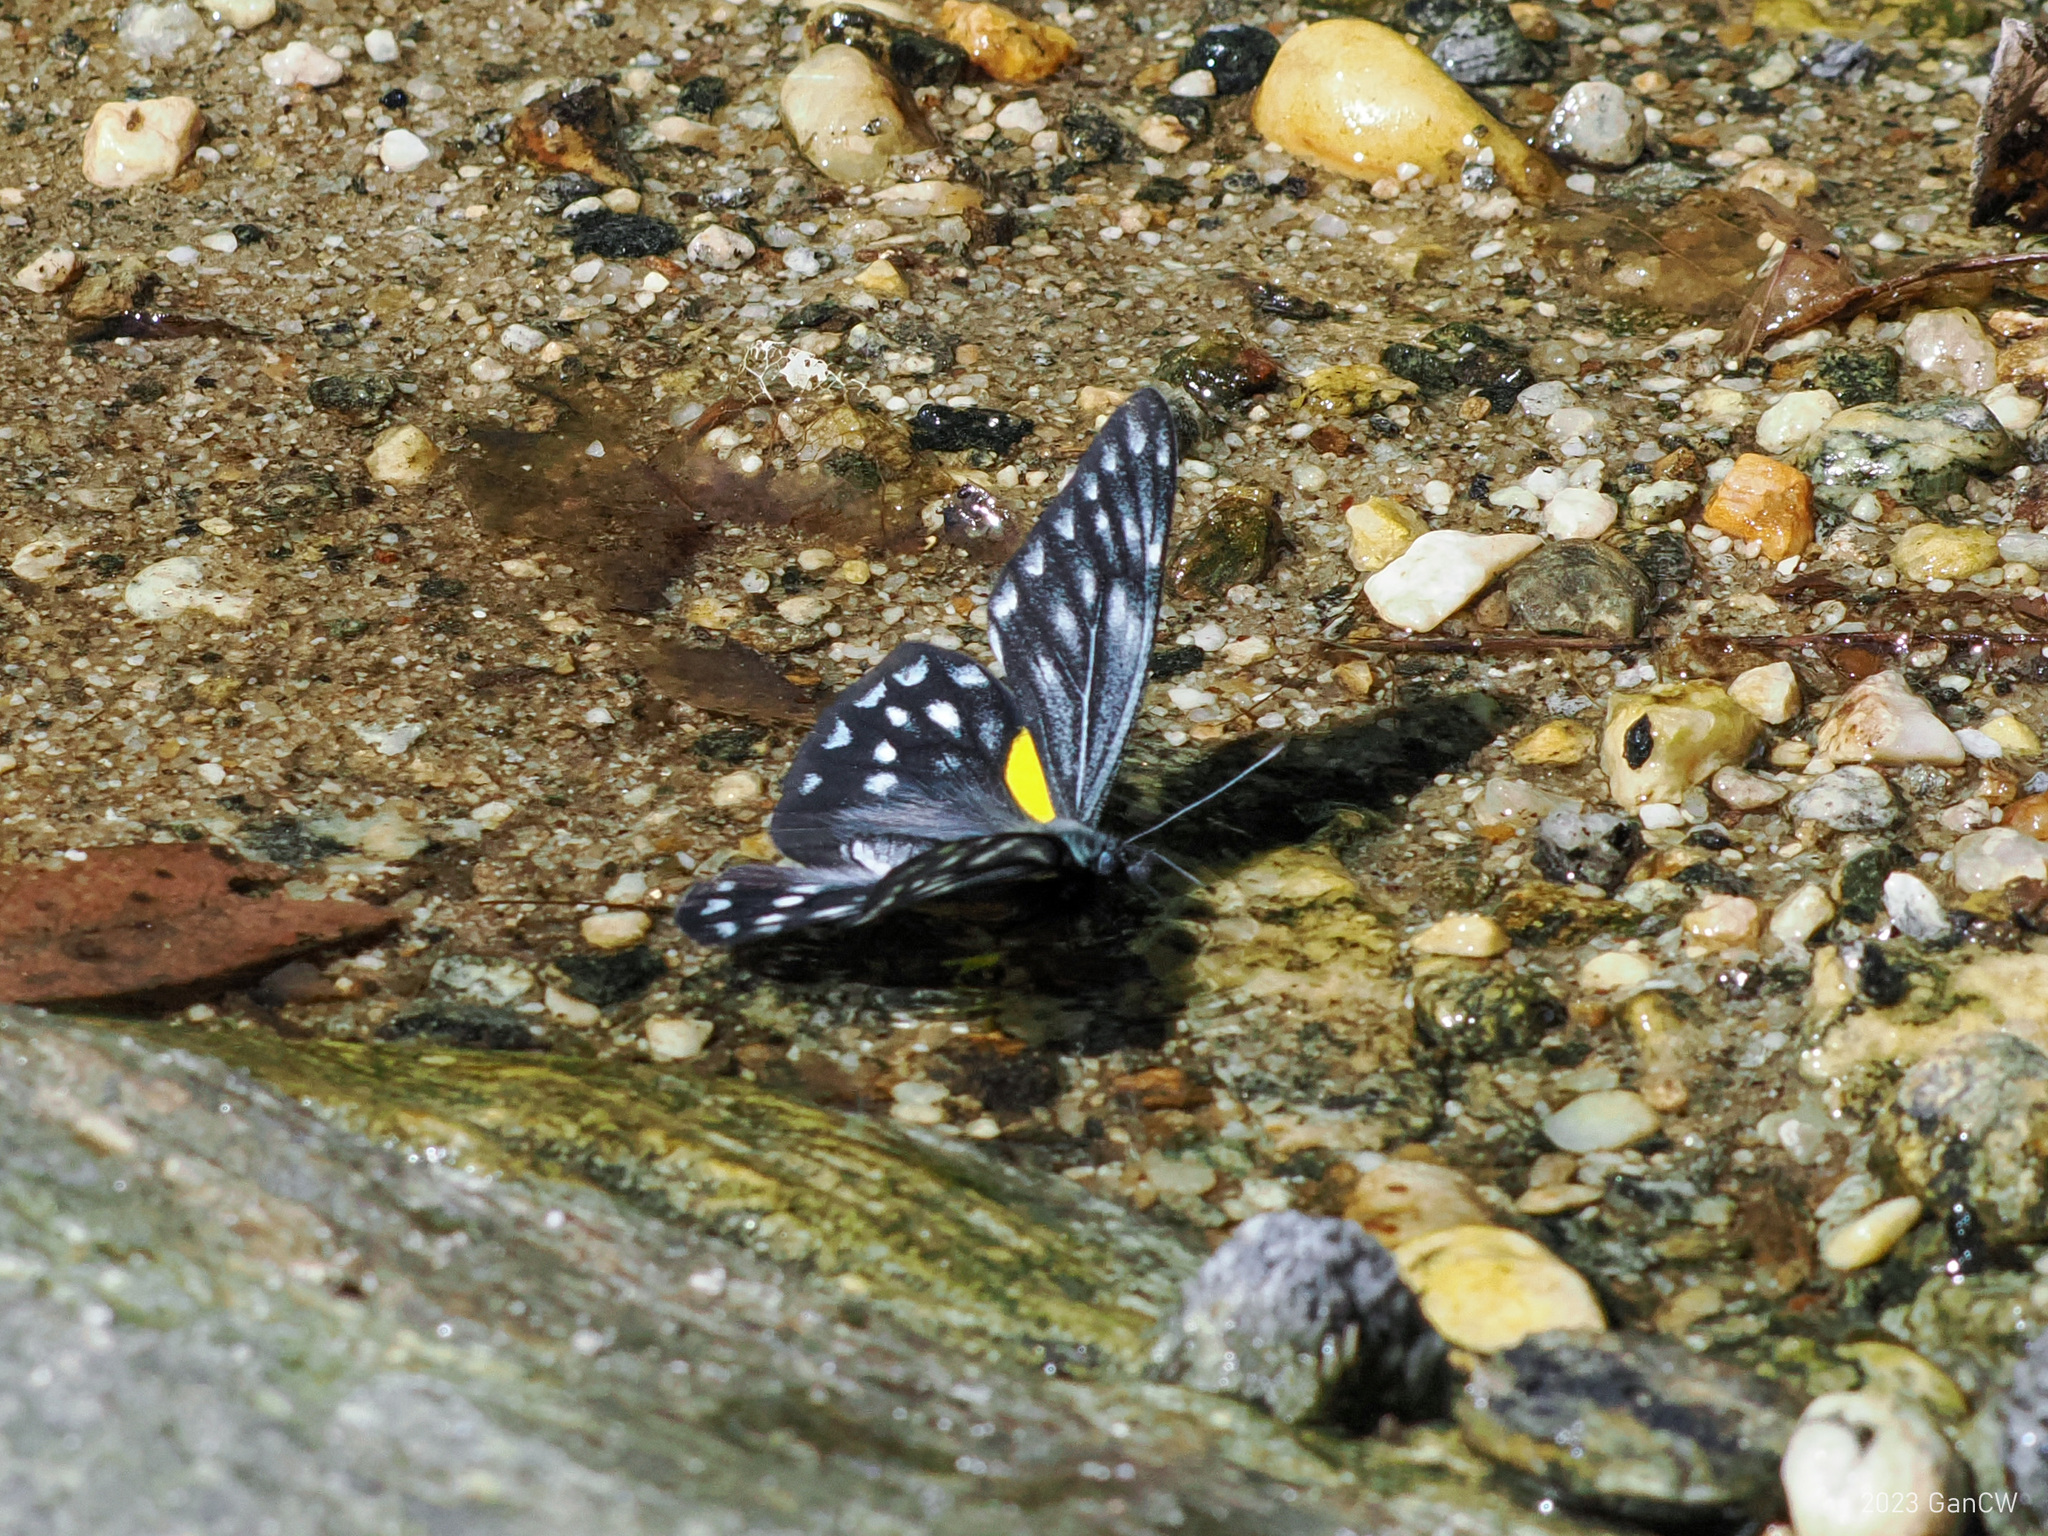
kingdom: Animalia
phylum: Arthropoda
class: Insecta
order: Lepidoptera
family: Pieridae
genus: Delias
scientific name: Delias belladonna
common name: Hill jezebel
